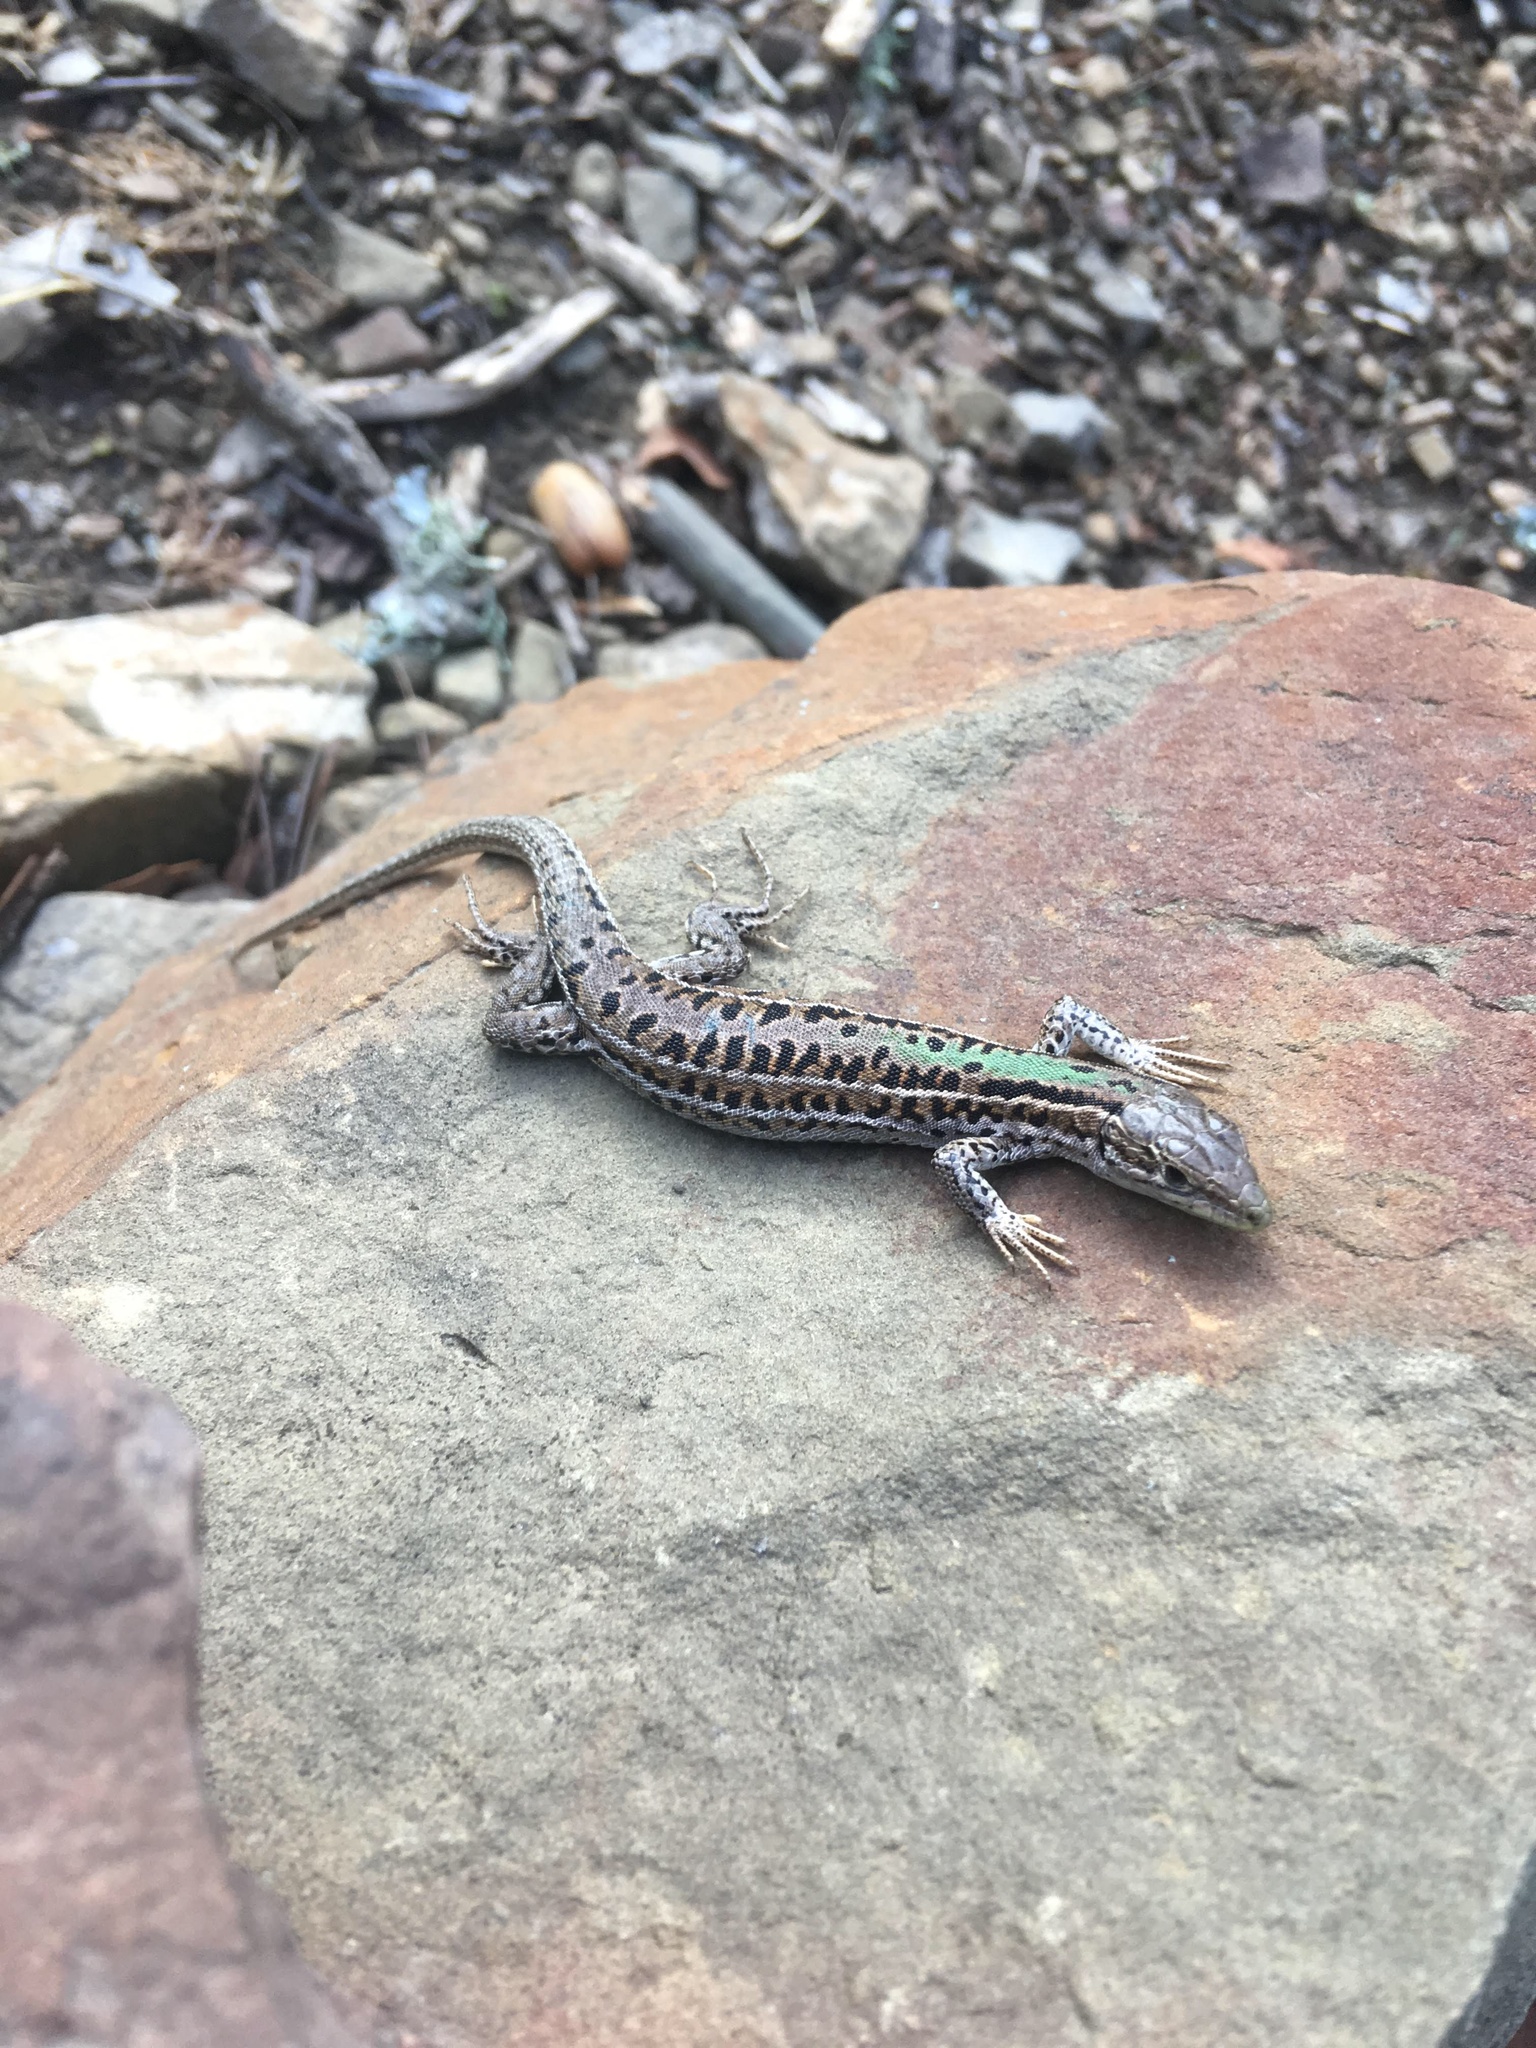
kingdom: Animalia
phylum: Chordata
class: Squamata
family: Lacertidae
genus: Podarcis
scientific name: Podarcis tauricus
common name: Balkan wall lizard
